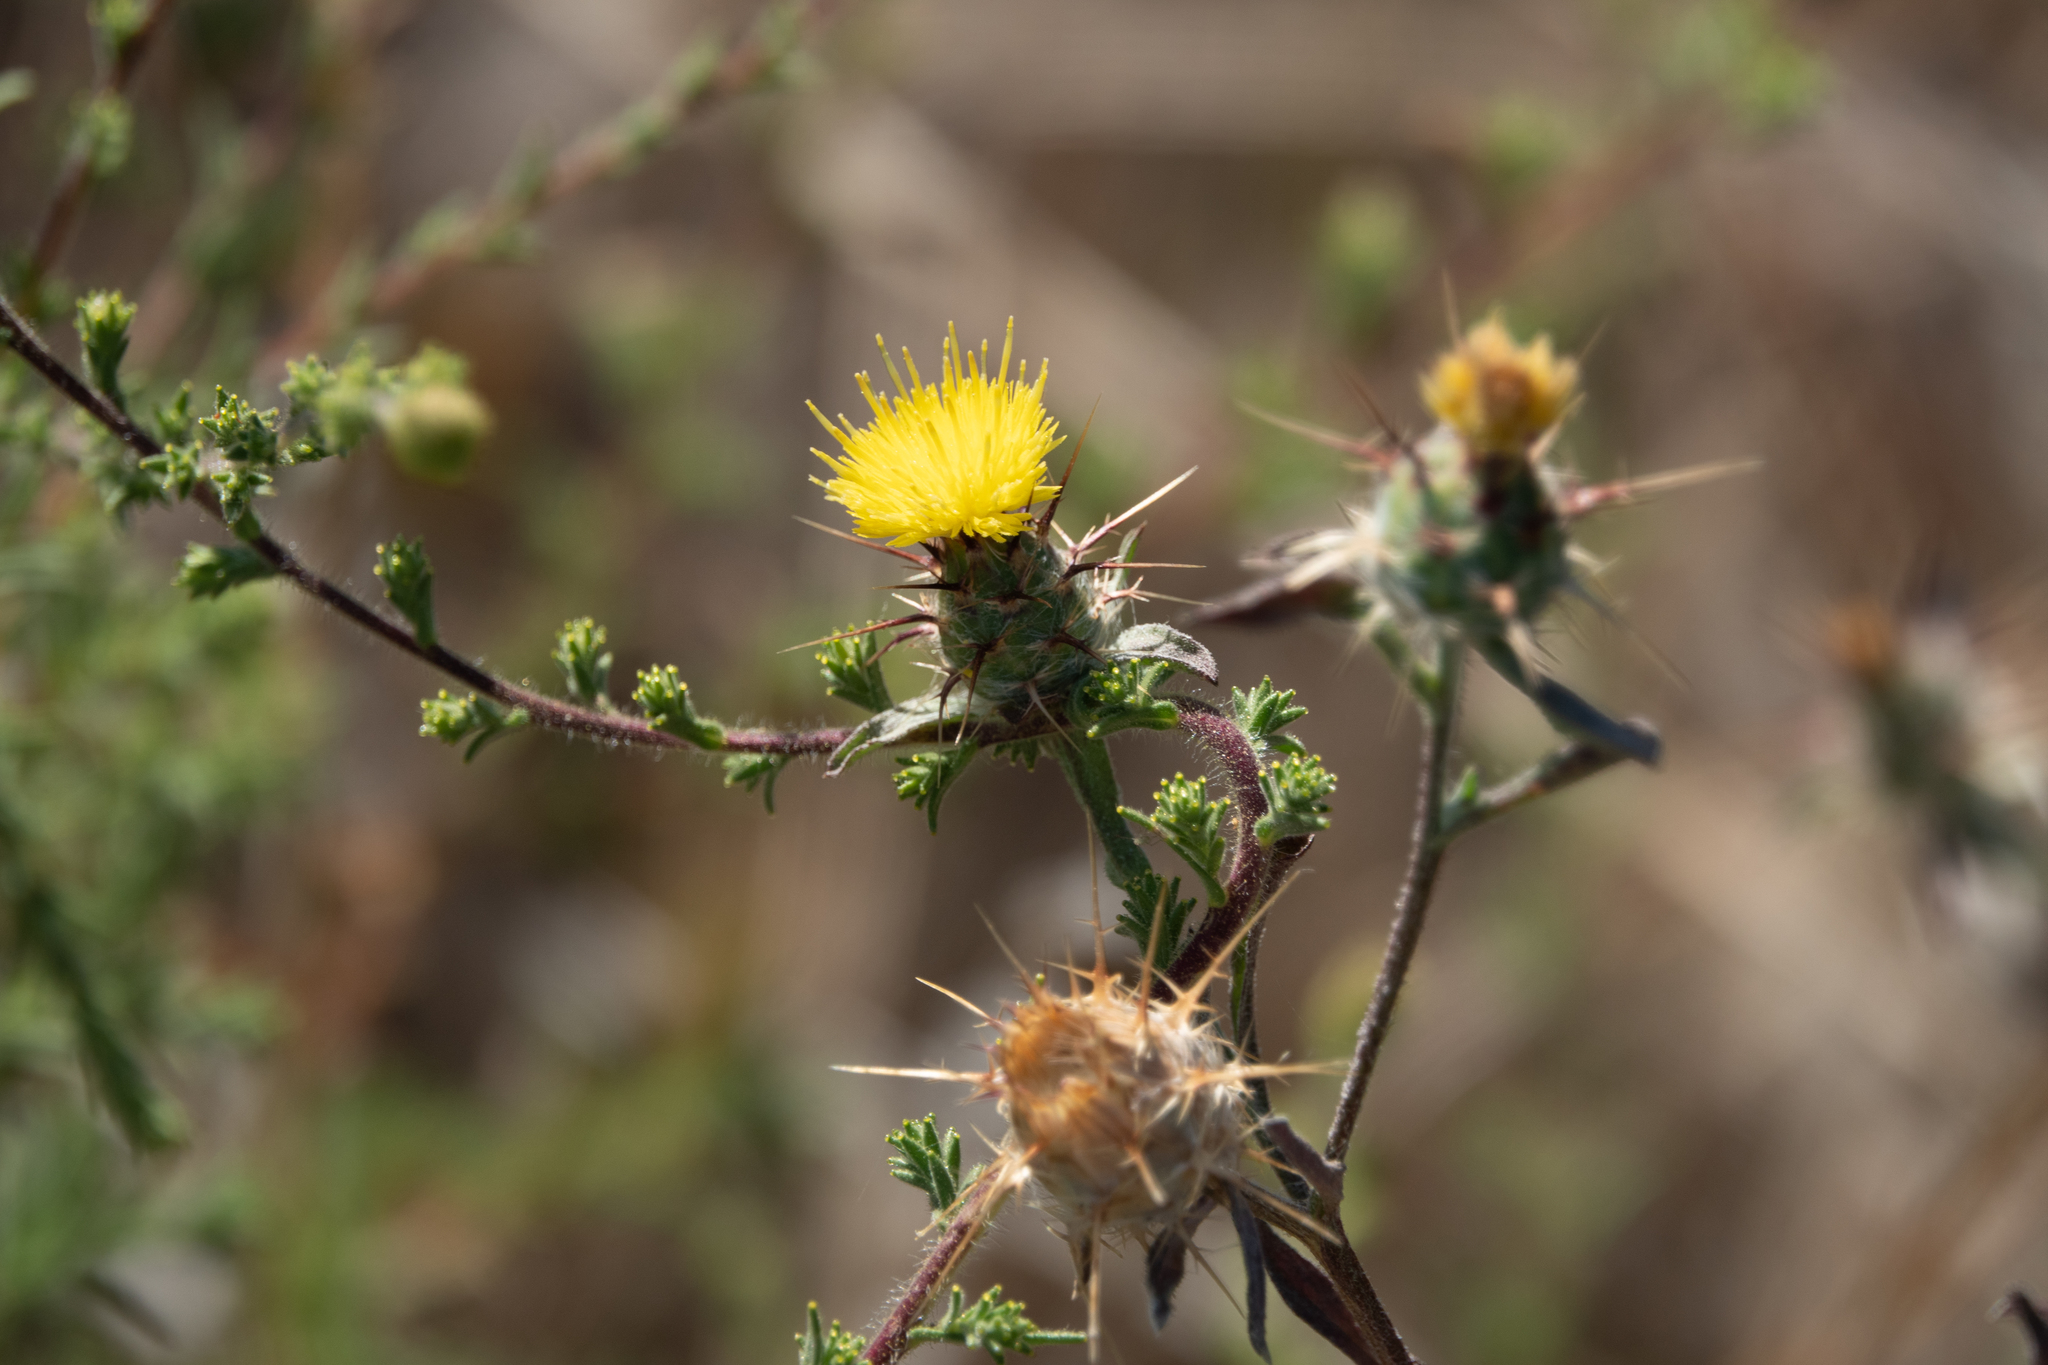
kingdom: Plantae
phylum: Tracheophyta
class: Magnoliopsida
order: Asterales
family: Asteraceae
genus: Centaurea
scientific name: Centaurea melitensis
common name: Maltese star-thistle
